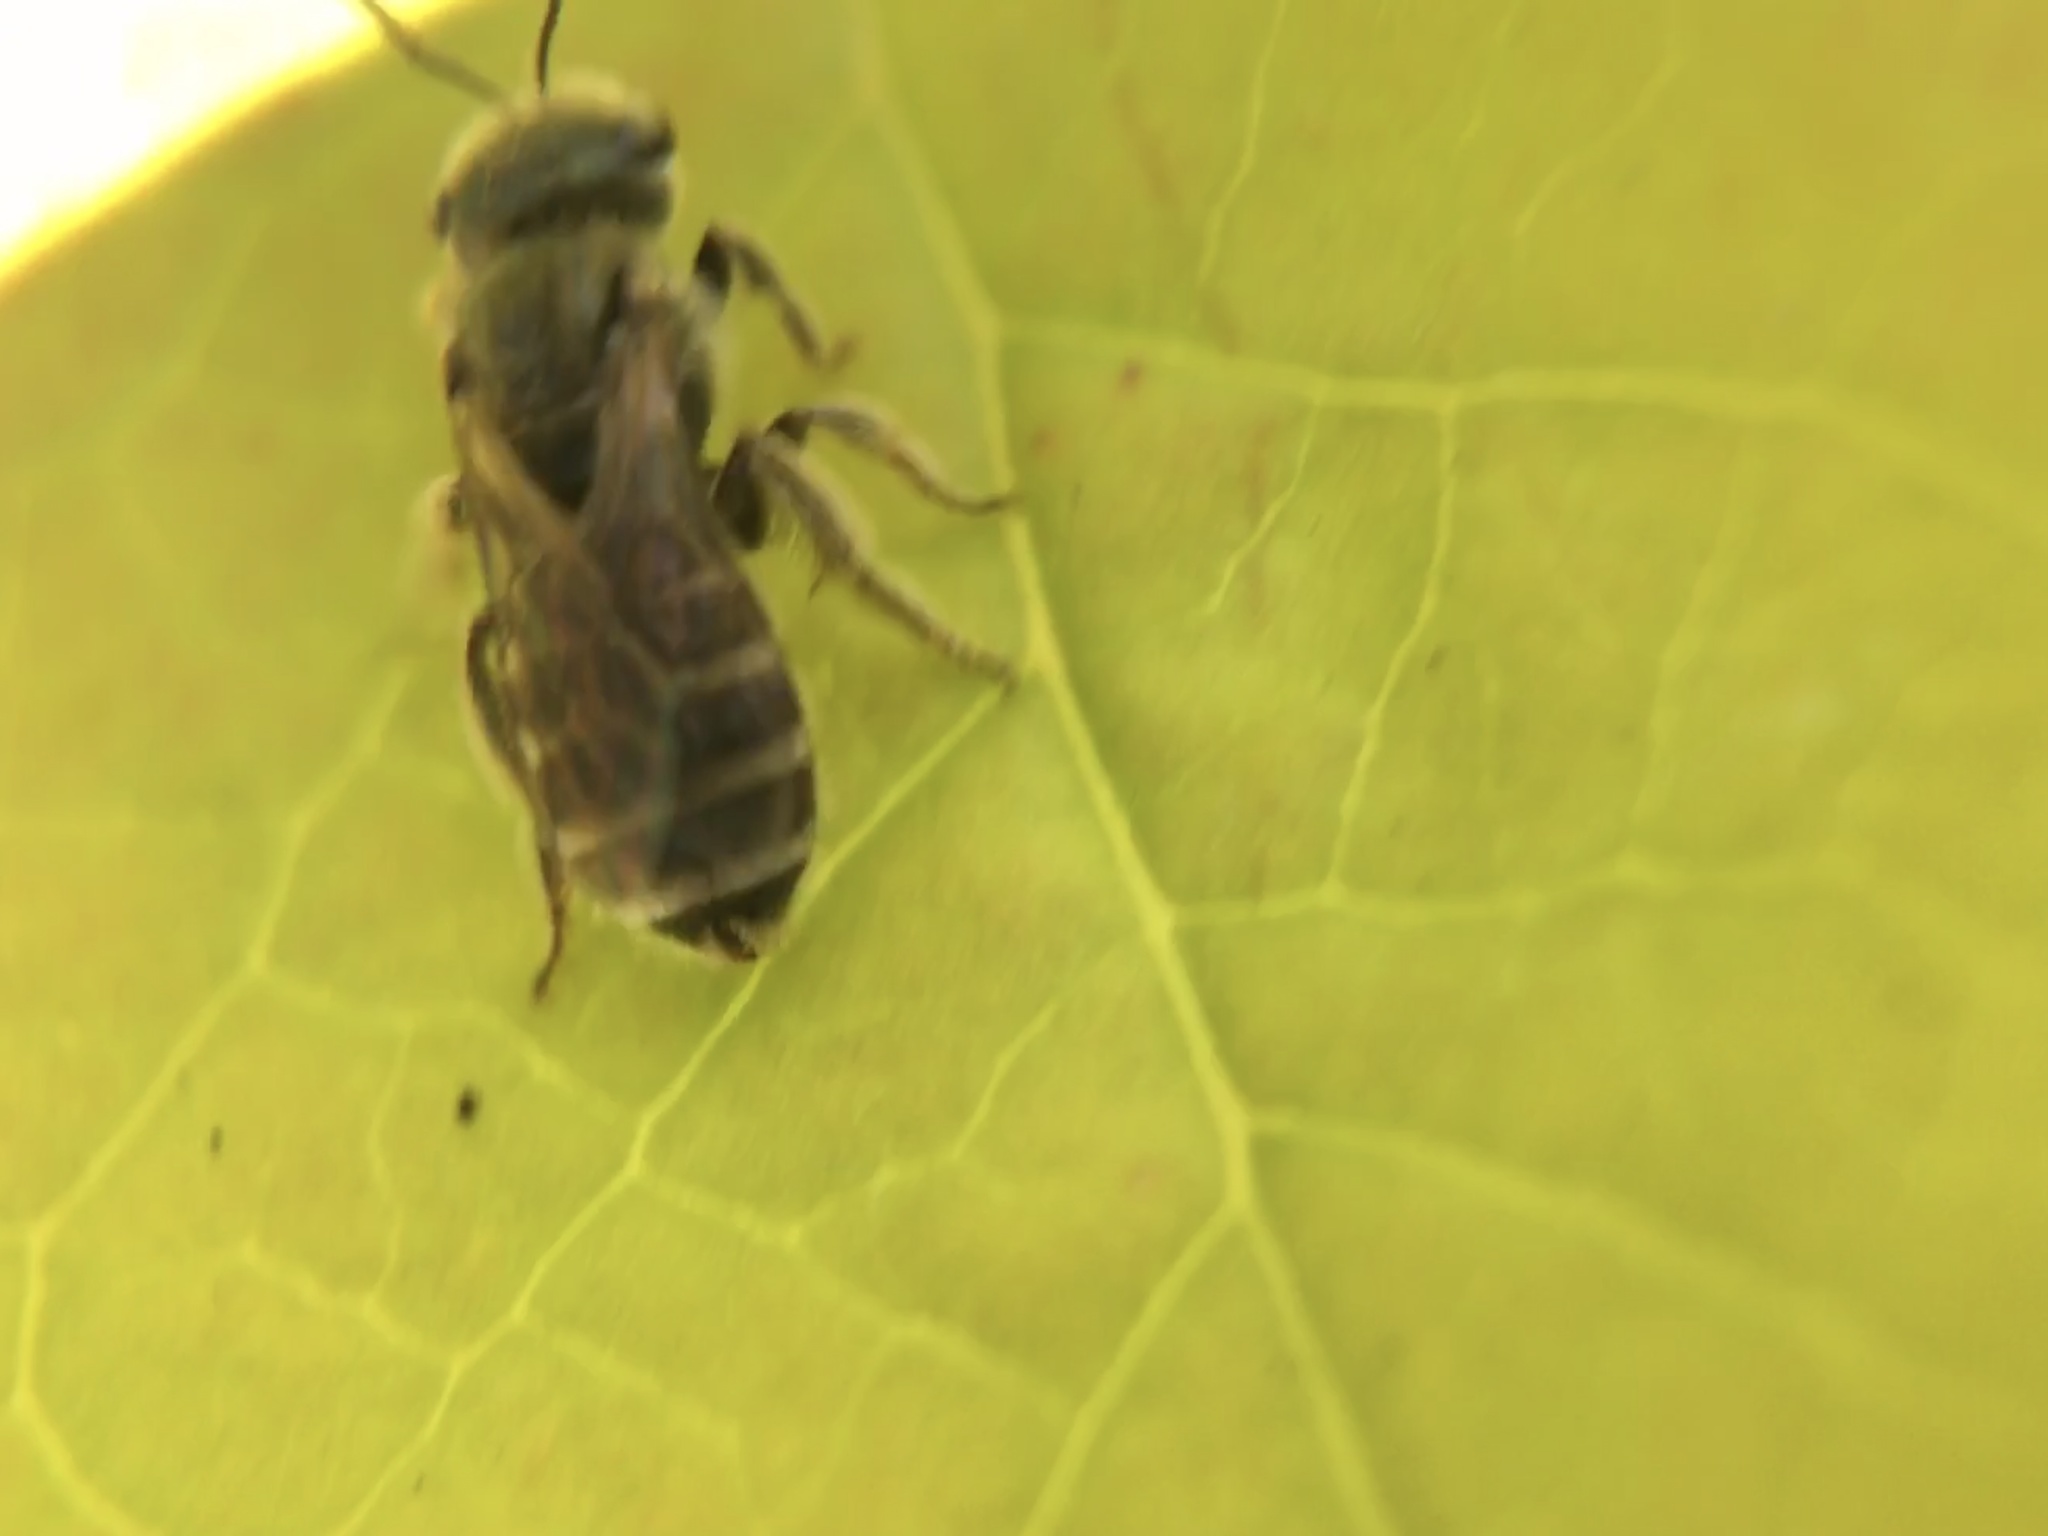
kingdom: Animalia
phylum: Arthropoda
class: Insecta
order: Hymenoptera
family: Halictidae
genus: Halictus
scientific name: Halictus tripartitus
